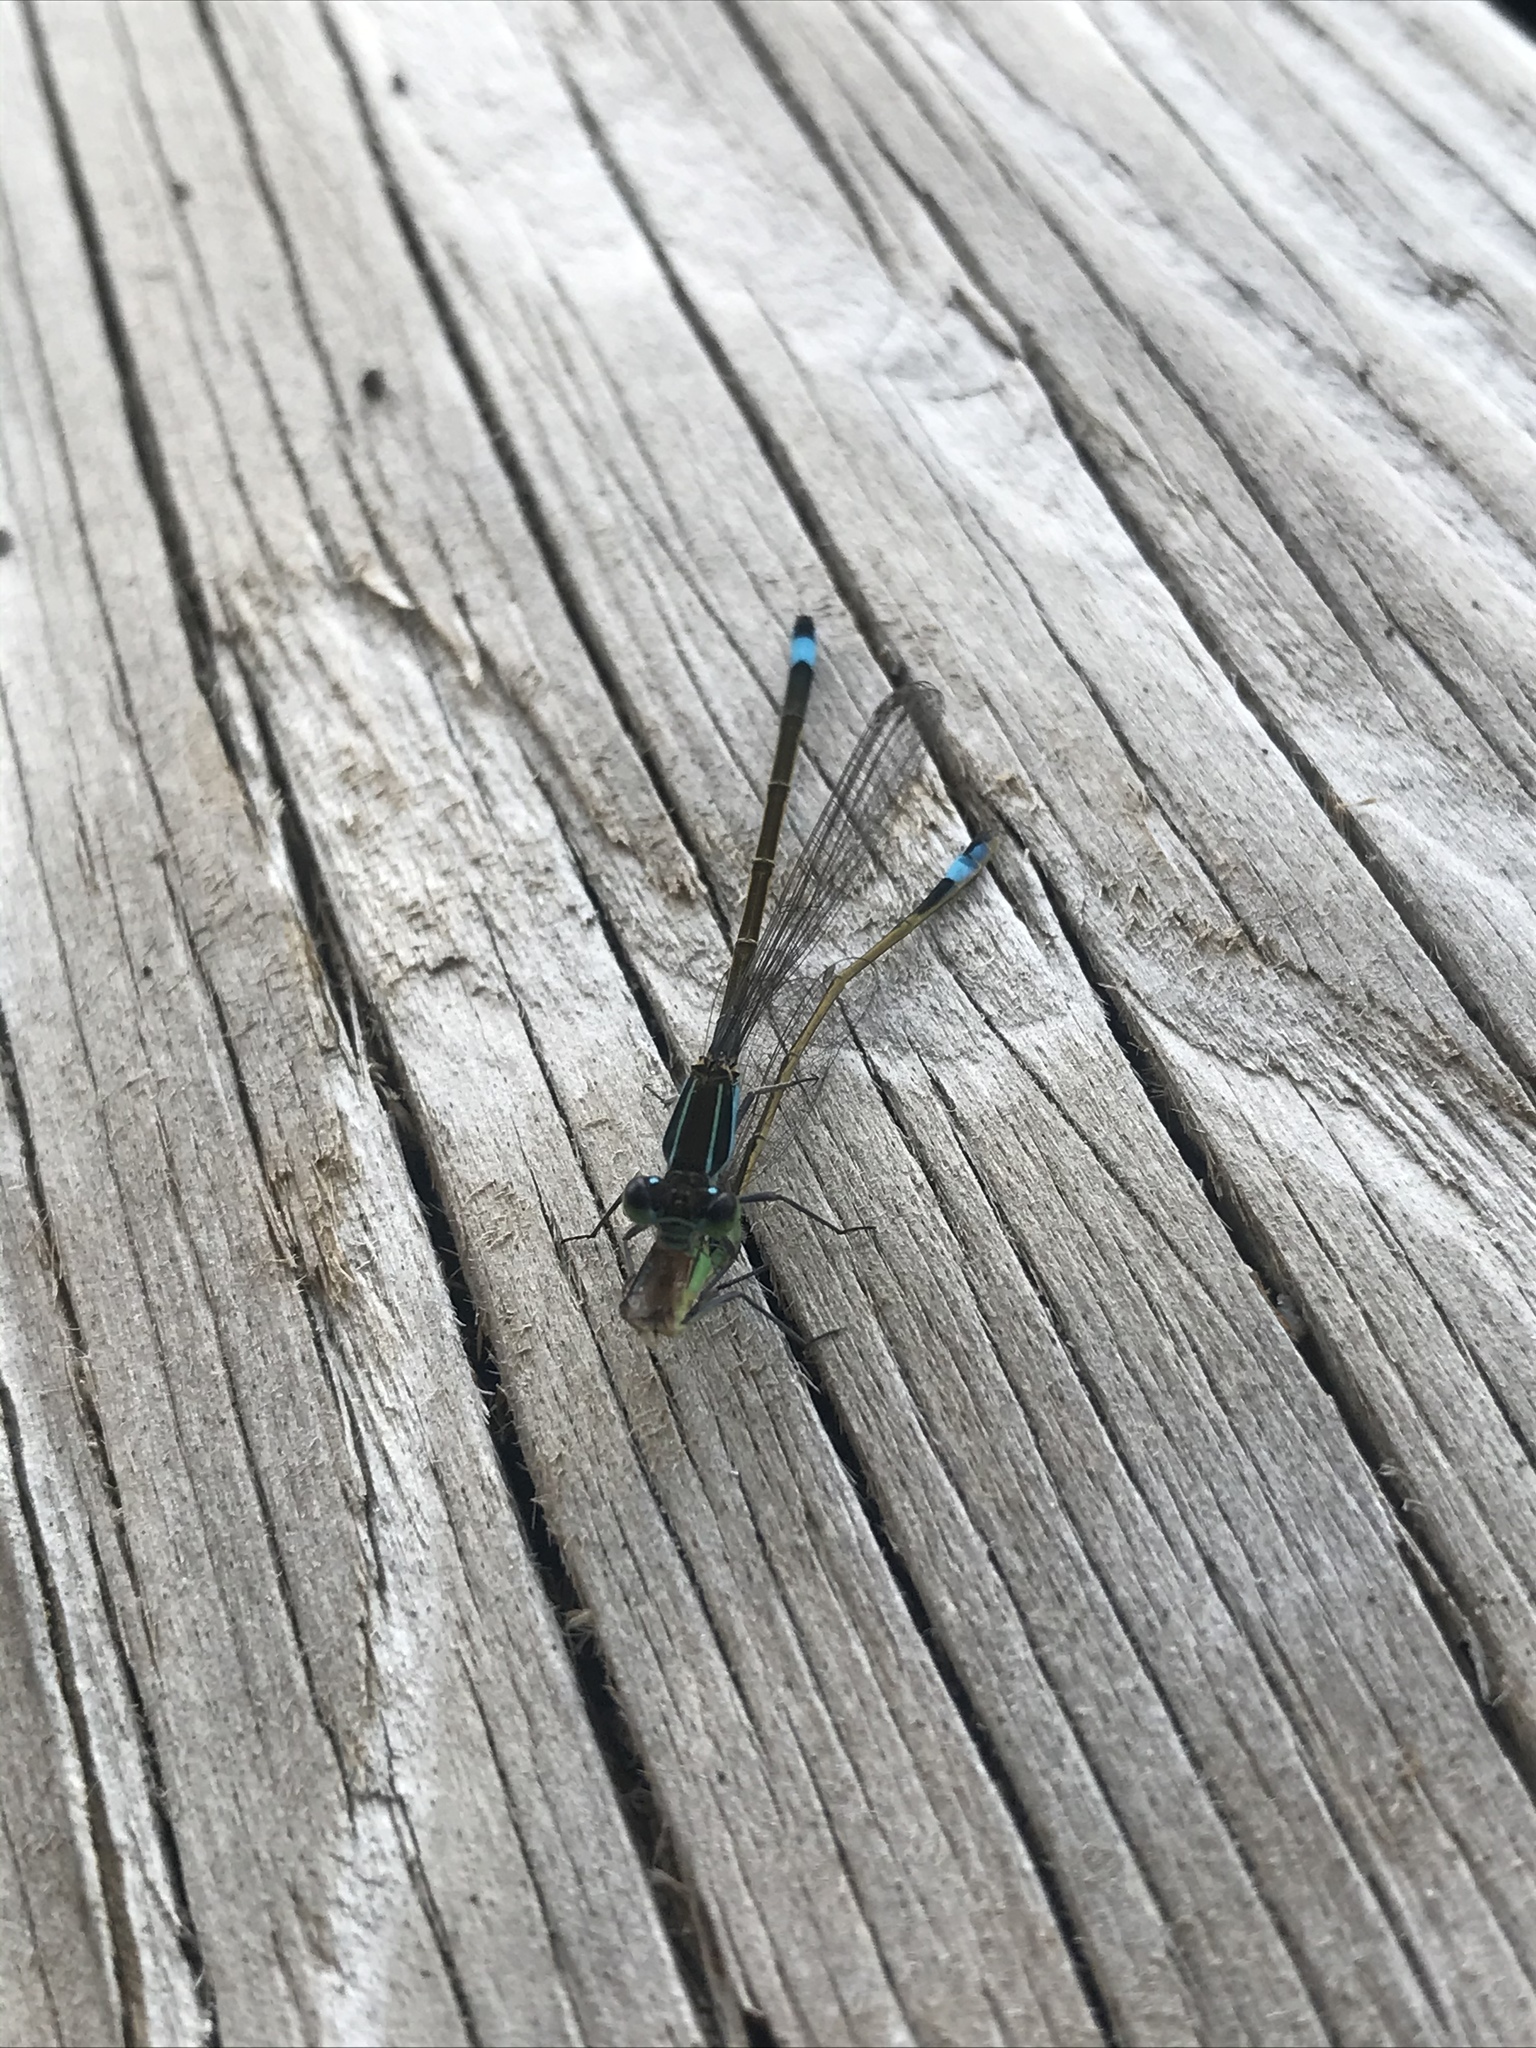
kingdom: Animalia
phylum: Arthropoda
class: Insecta
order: Odonata
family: Coenagrionidae
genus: Ischnura
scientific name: Ischnura ramburii
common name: Rambur's forktail
